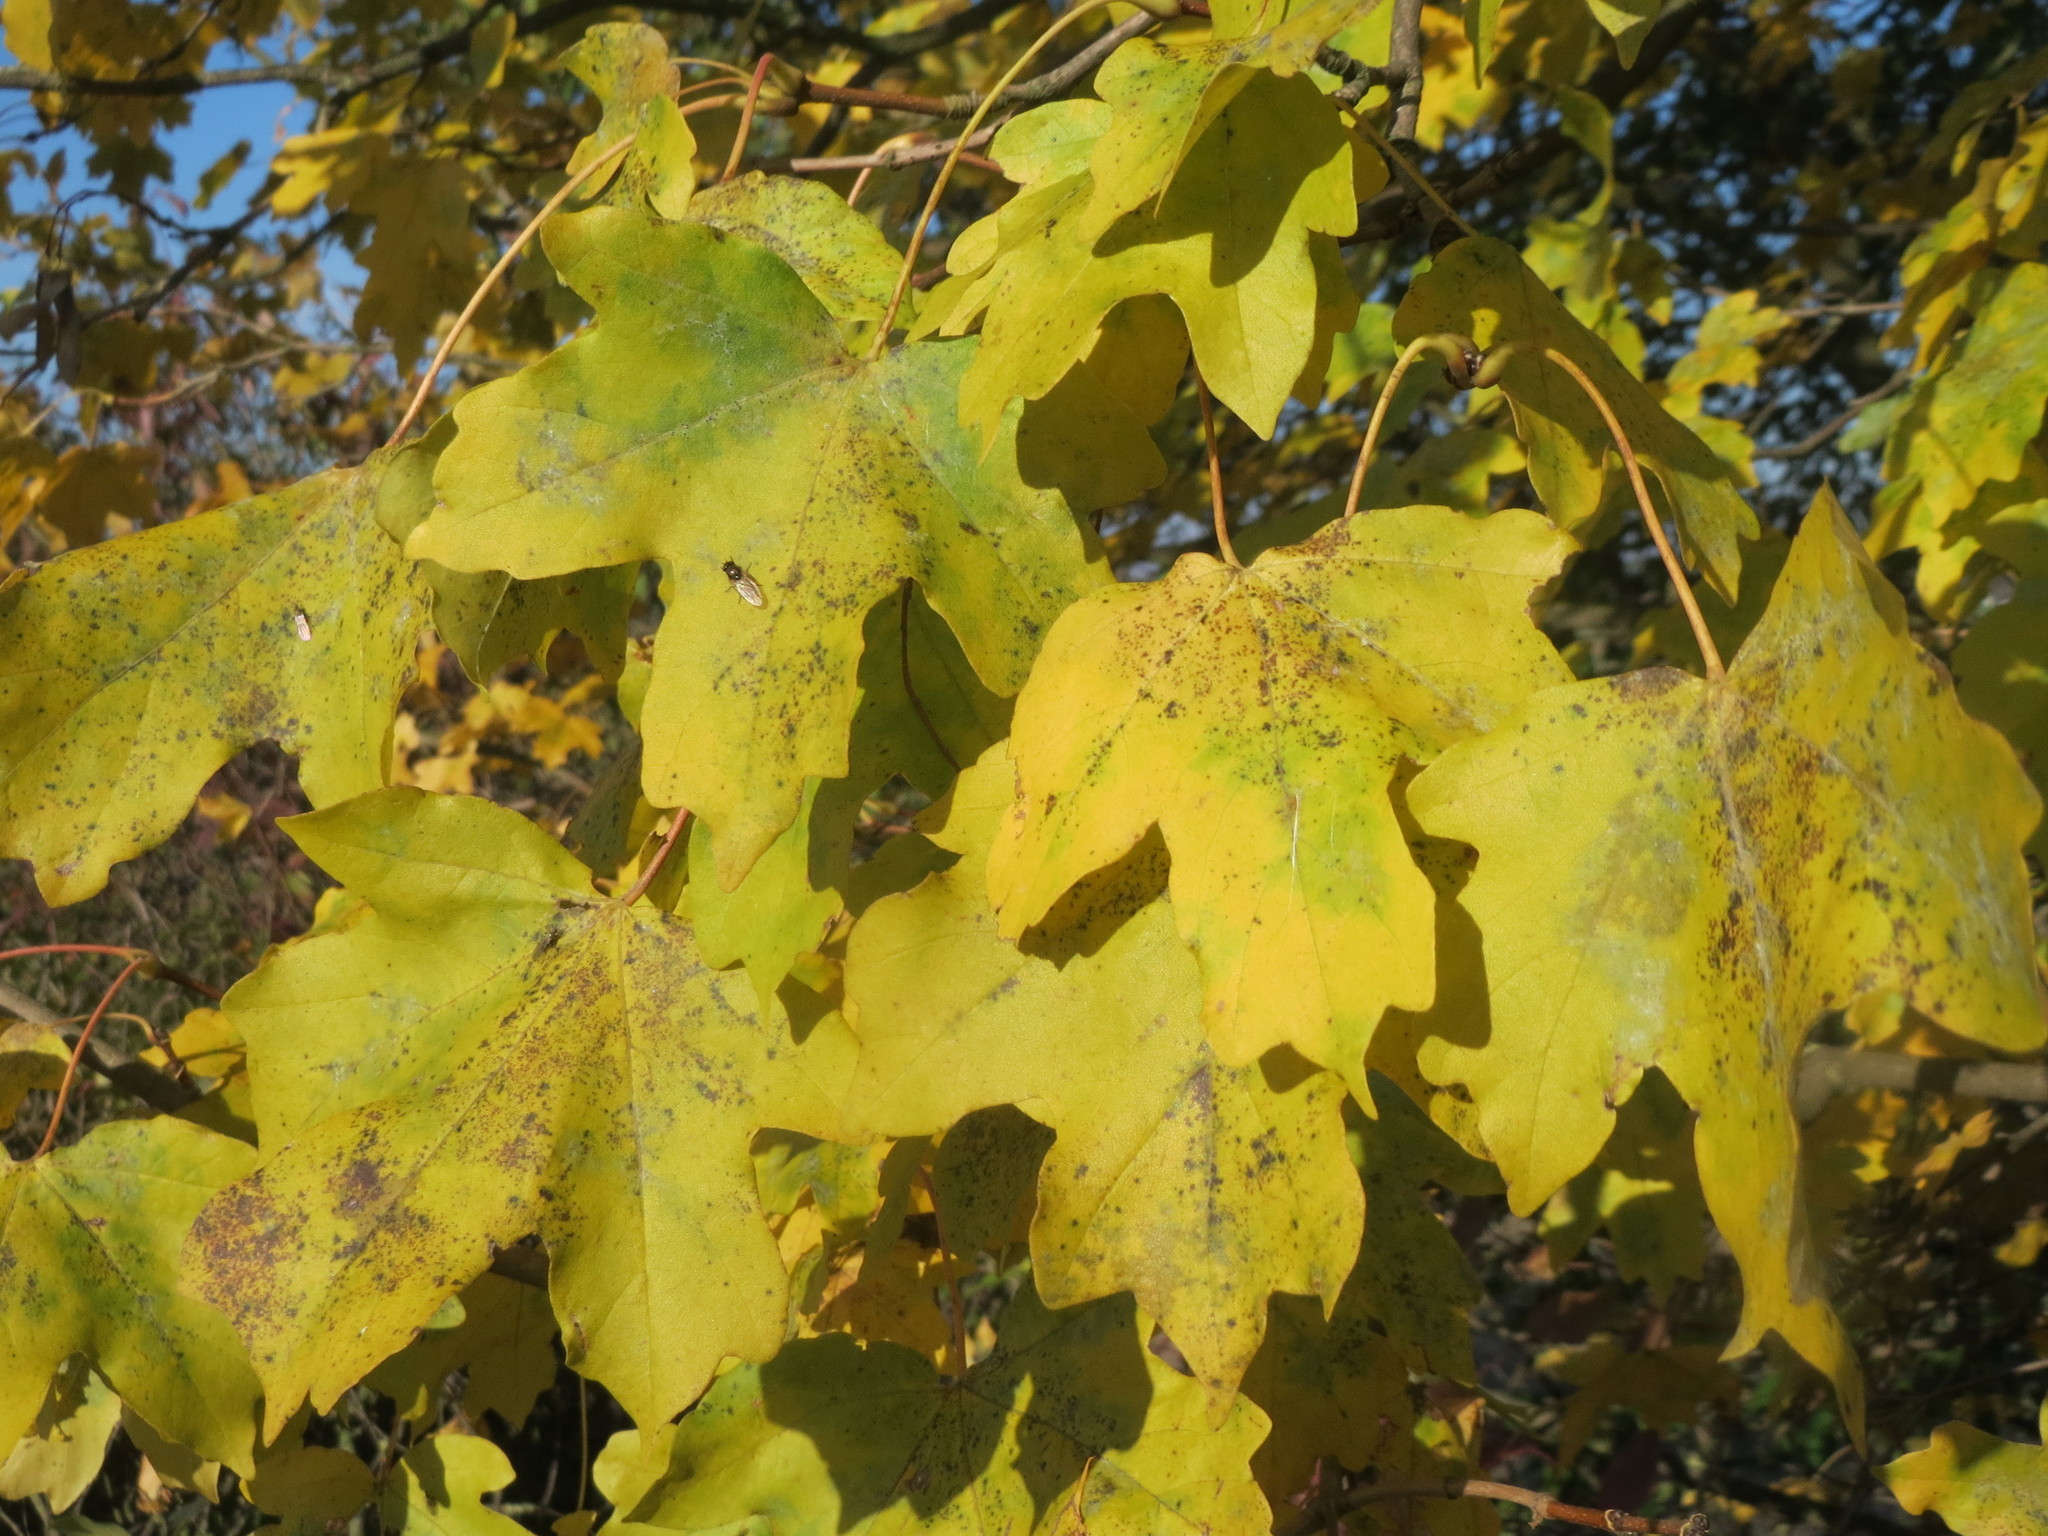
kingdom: Plantae
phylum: Tracheophyta
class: Magnoliopsida
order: Sapindales
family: Sapindaceae
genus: Acer
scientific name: Acer campestre
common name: Field maple
